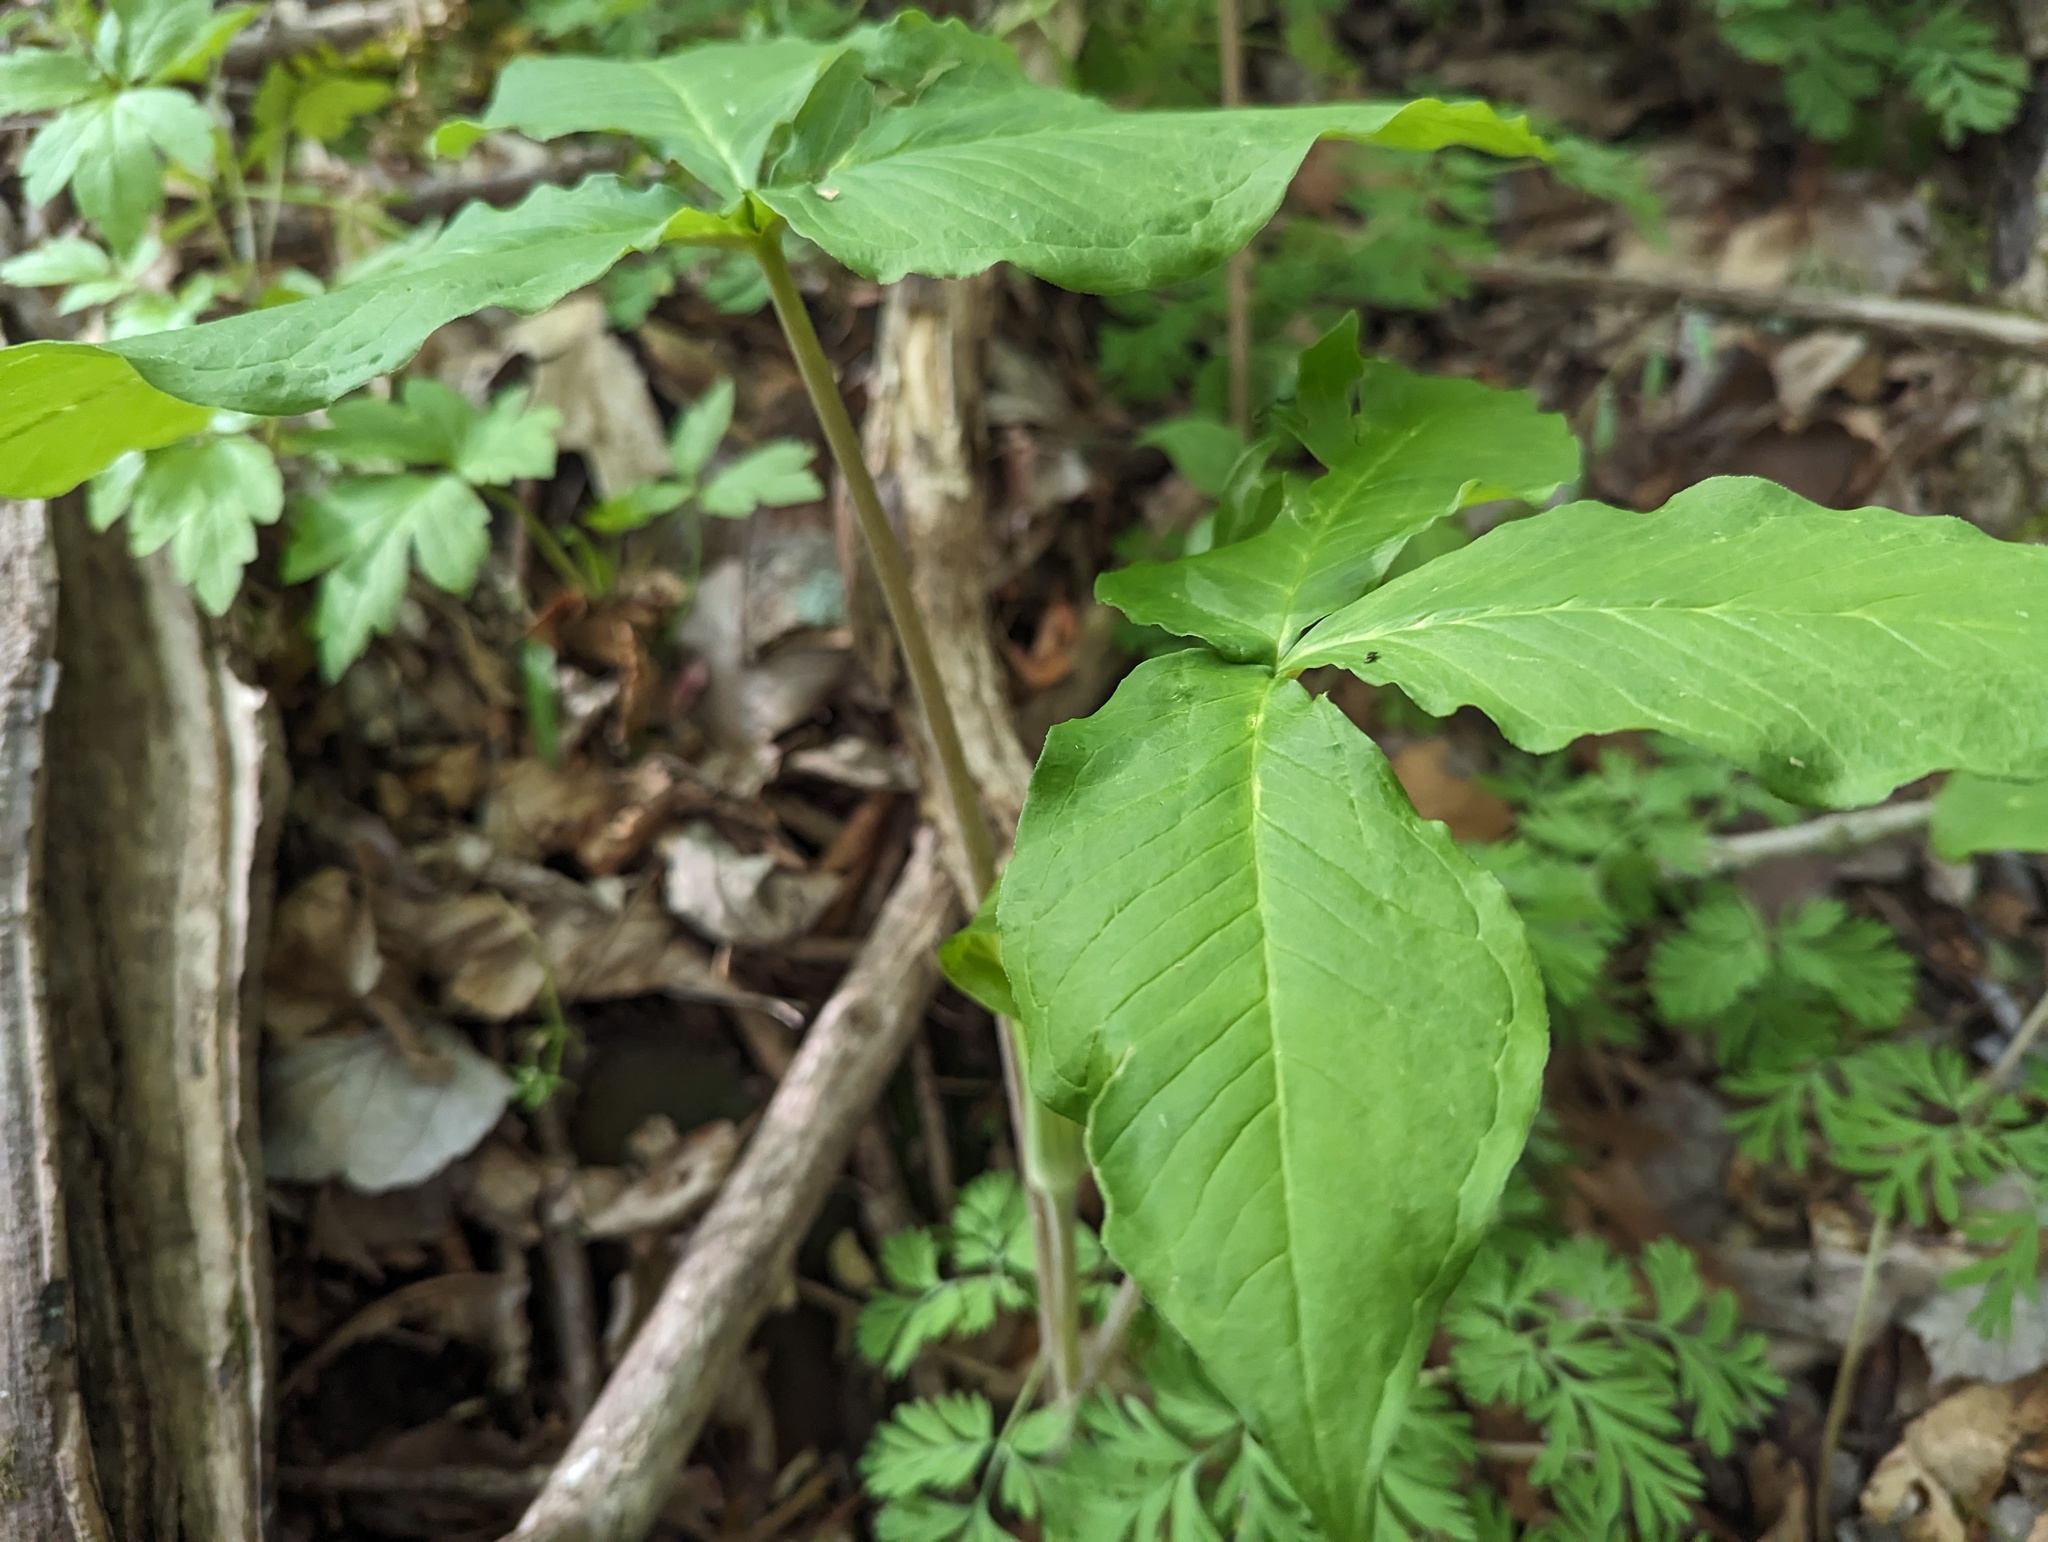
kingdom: Plantae
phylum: Tracheophyta
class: Liliopsida
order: Alismatales
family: Araceae
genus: Arisaema
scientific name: Arisaema triphyllum
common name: Jack-in-the-pulpit
